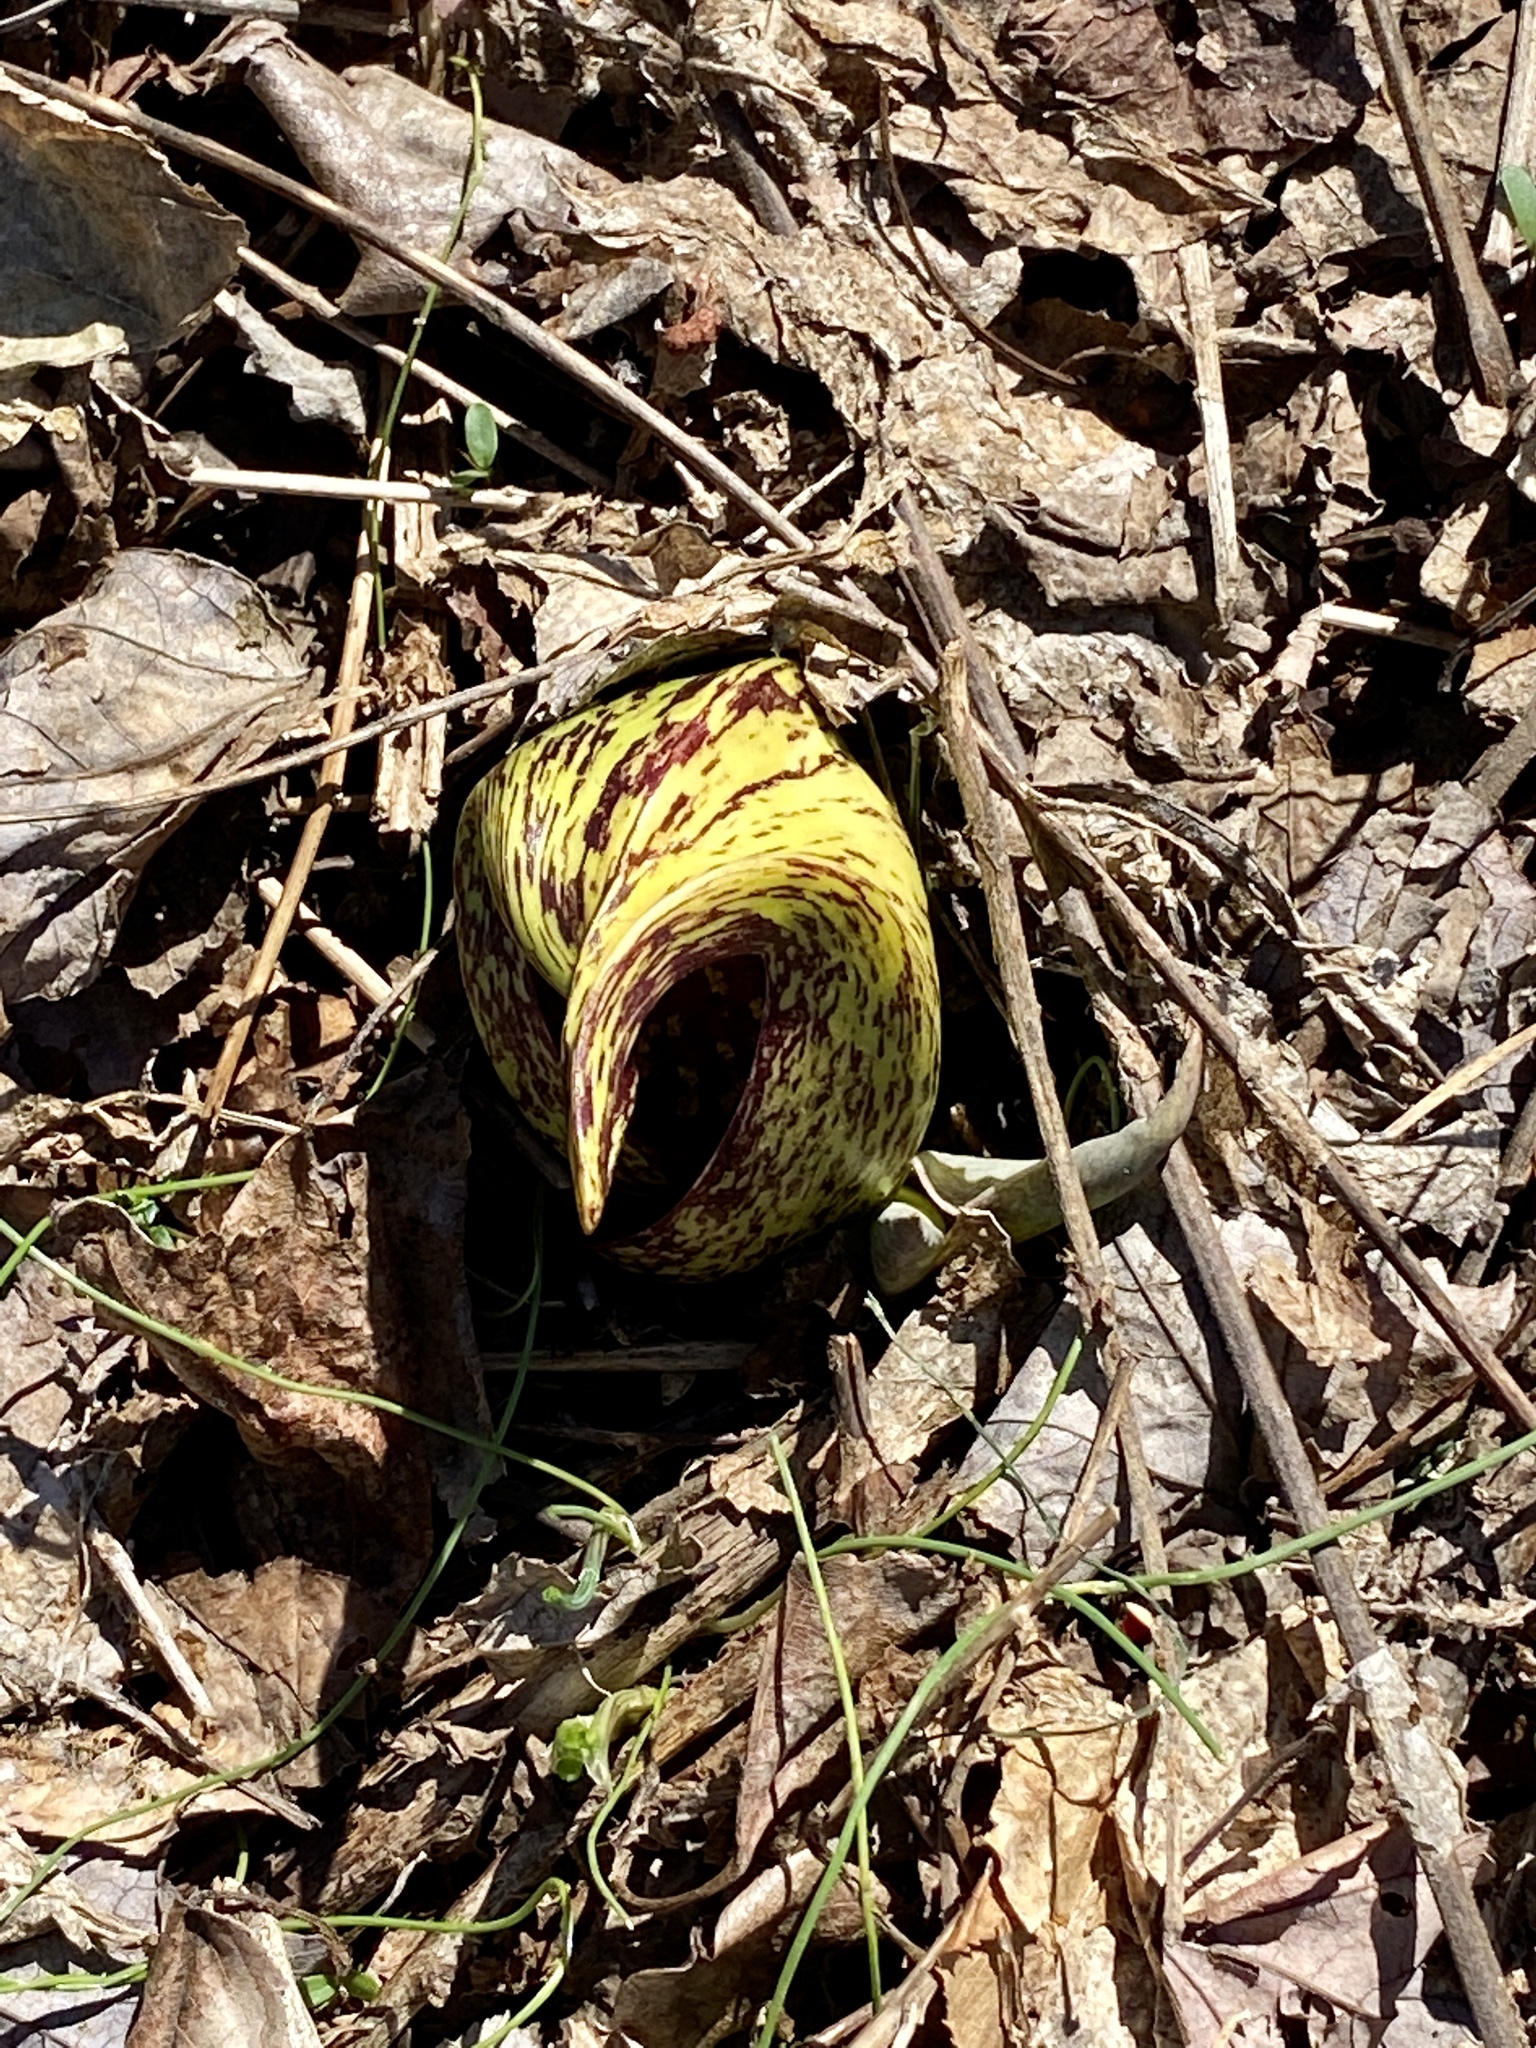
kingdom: Plantae
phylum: Tracheophyta
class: Liliopsida
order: Alismatales
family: Araceae
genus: Symplocarpus
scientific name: Symplocarpus foetidus
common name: Eastern skunk cabbage
